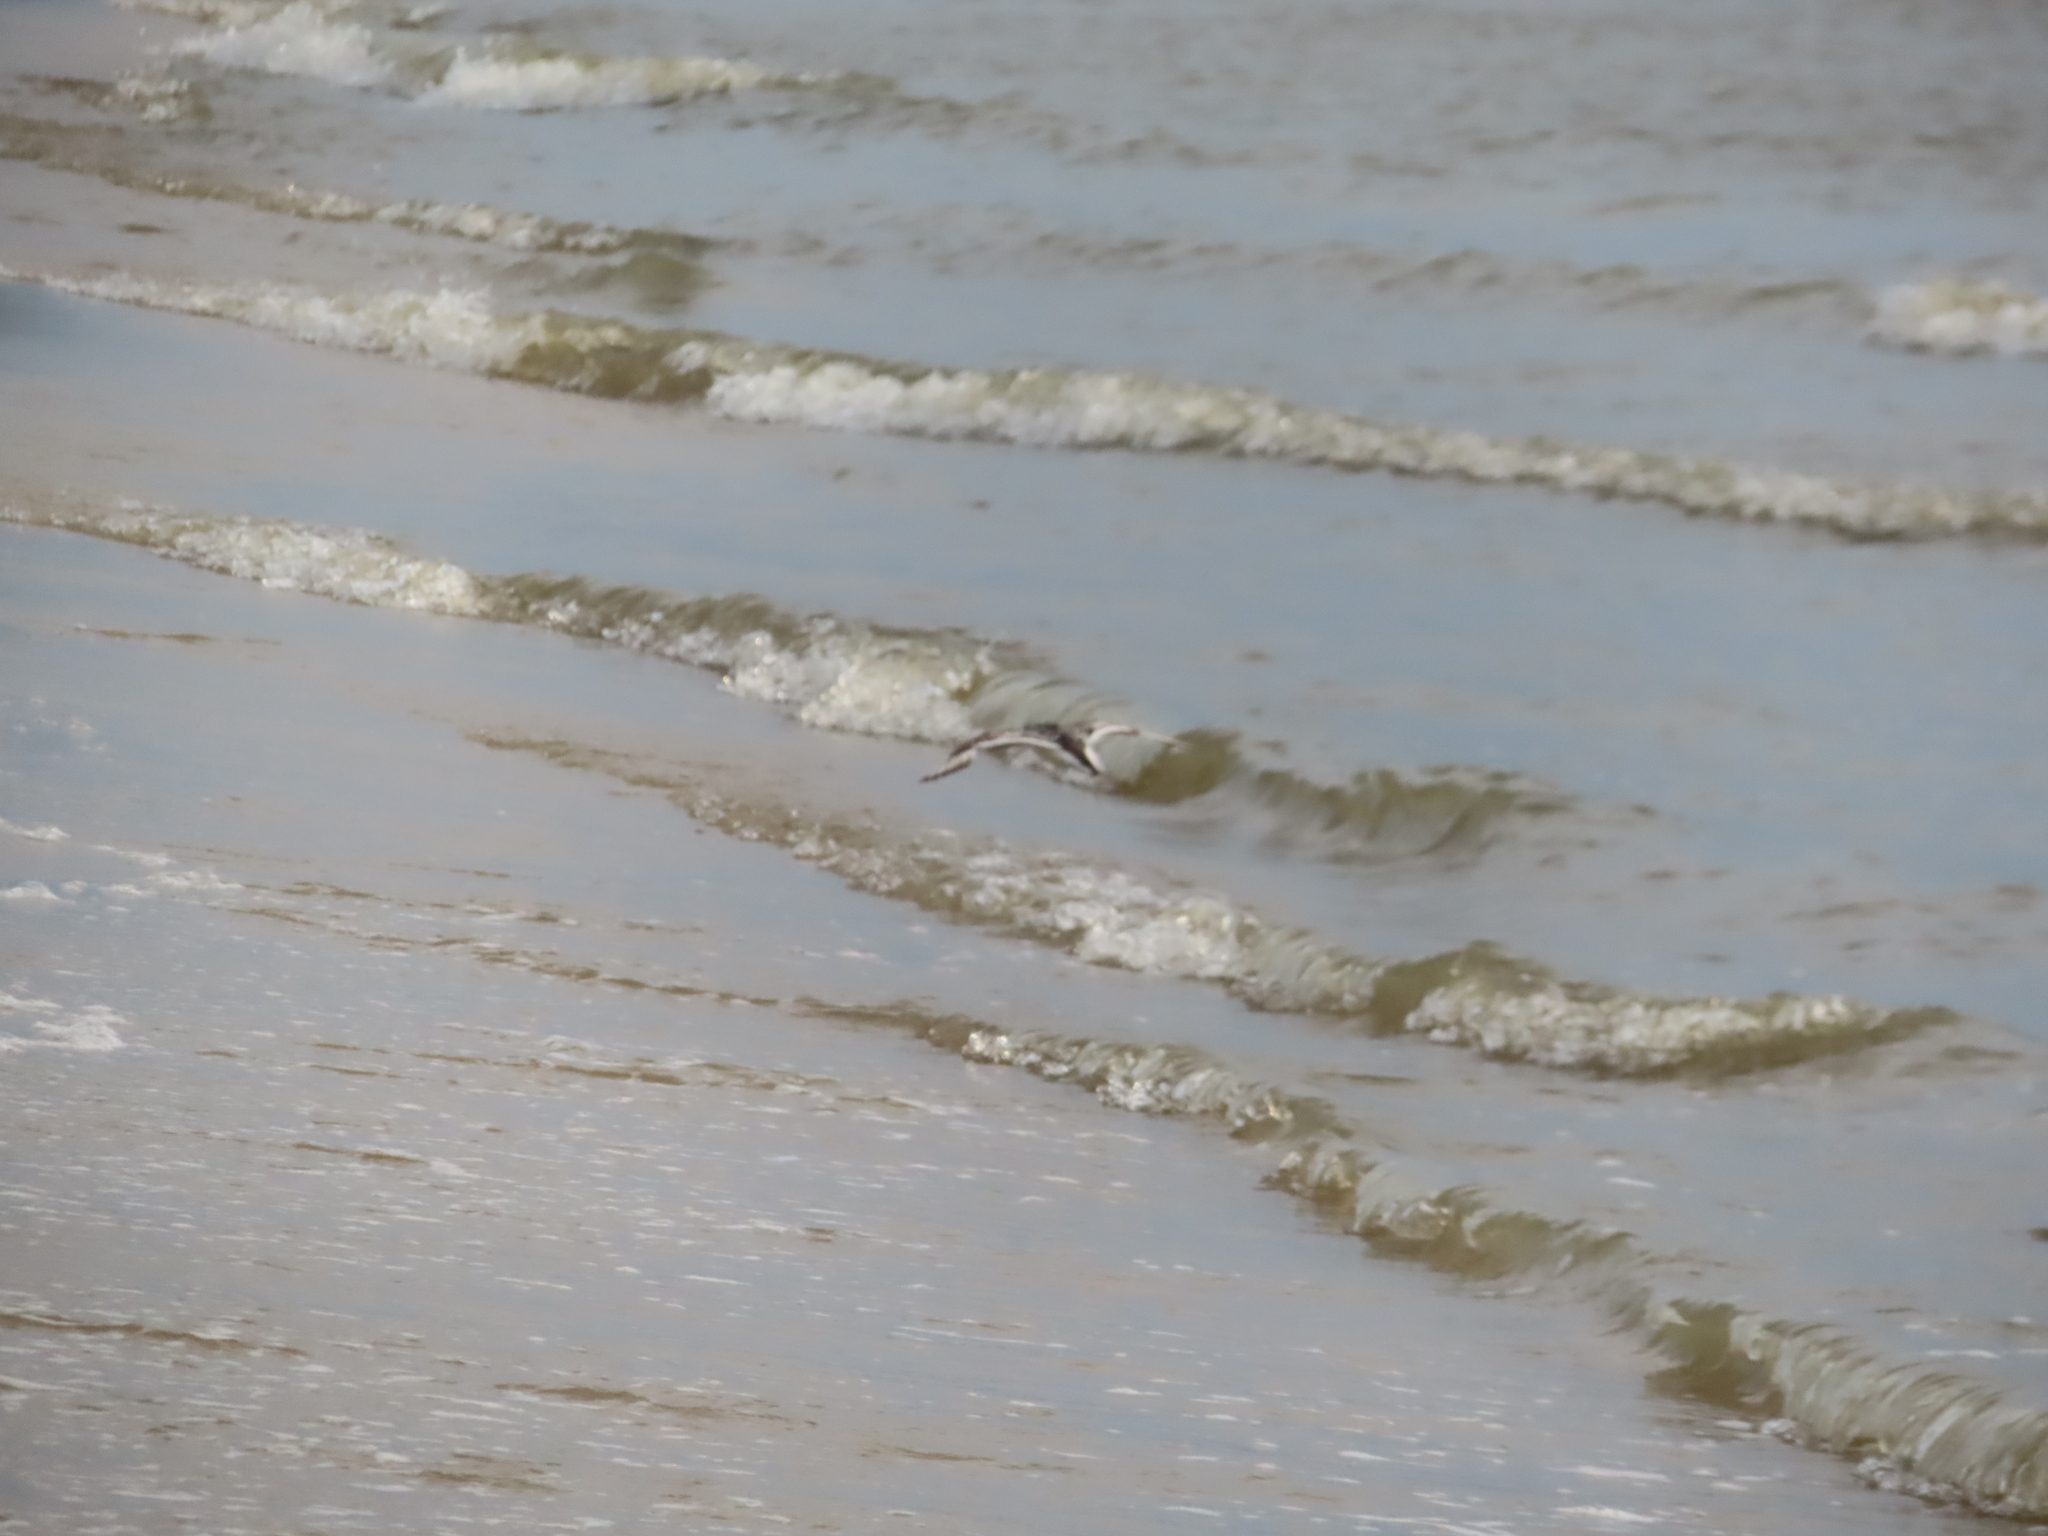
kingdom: Animalia
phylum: Chordata
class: Aves
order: Charadriiformes
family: Scolopacidae
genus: Calidris
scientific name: Calidris alba
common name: Sanderling
